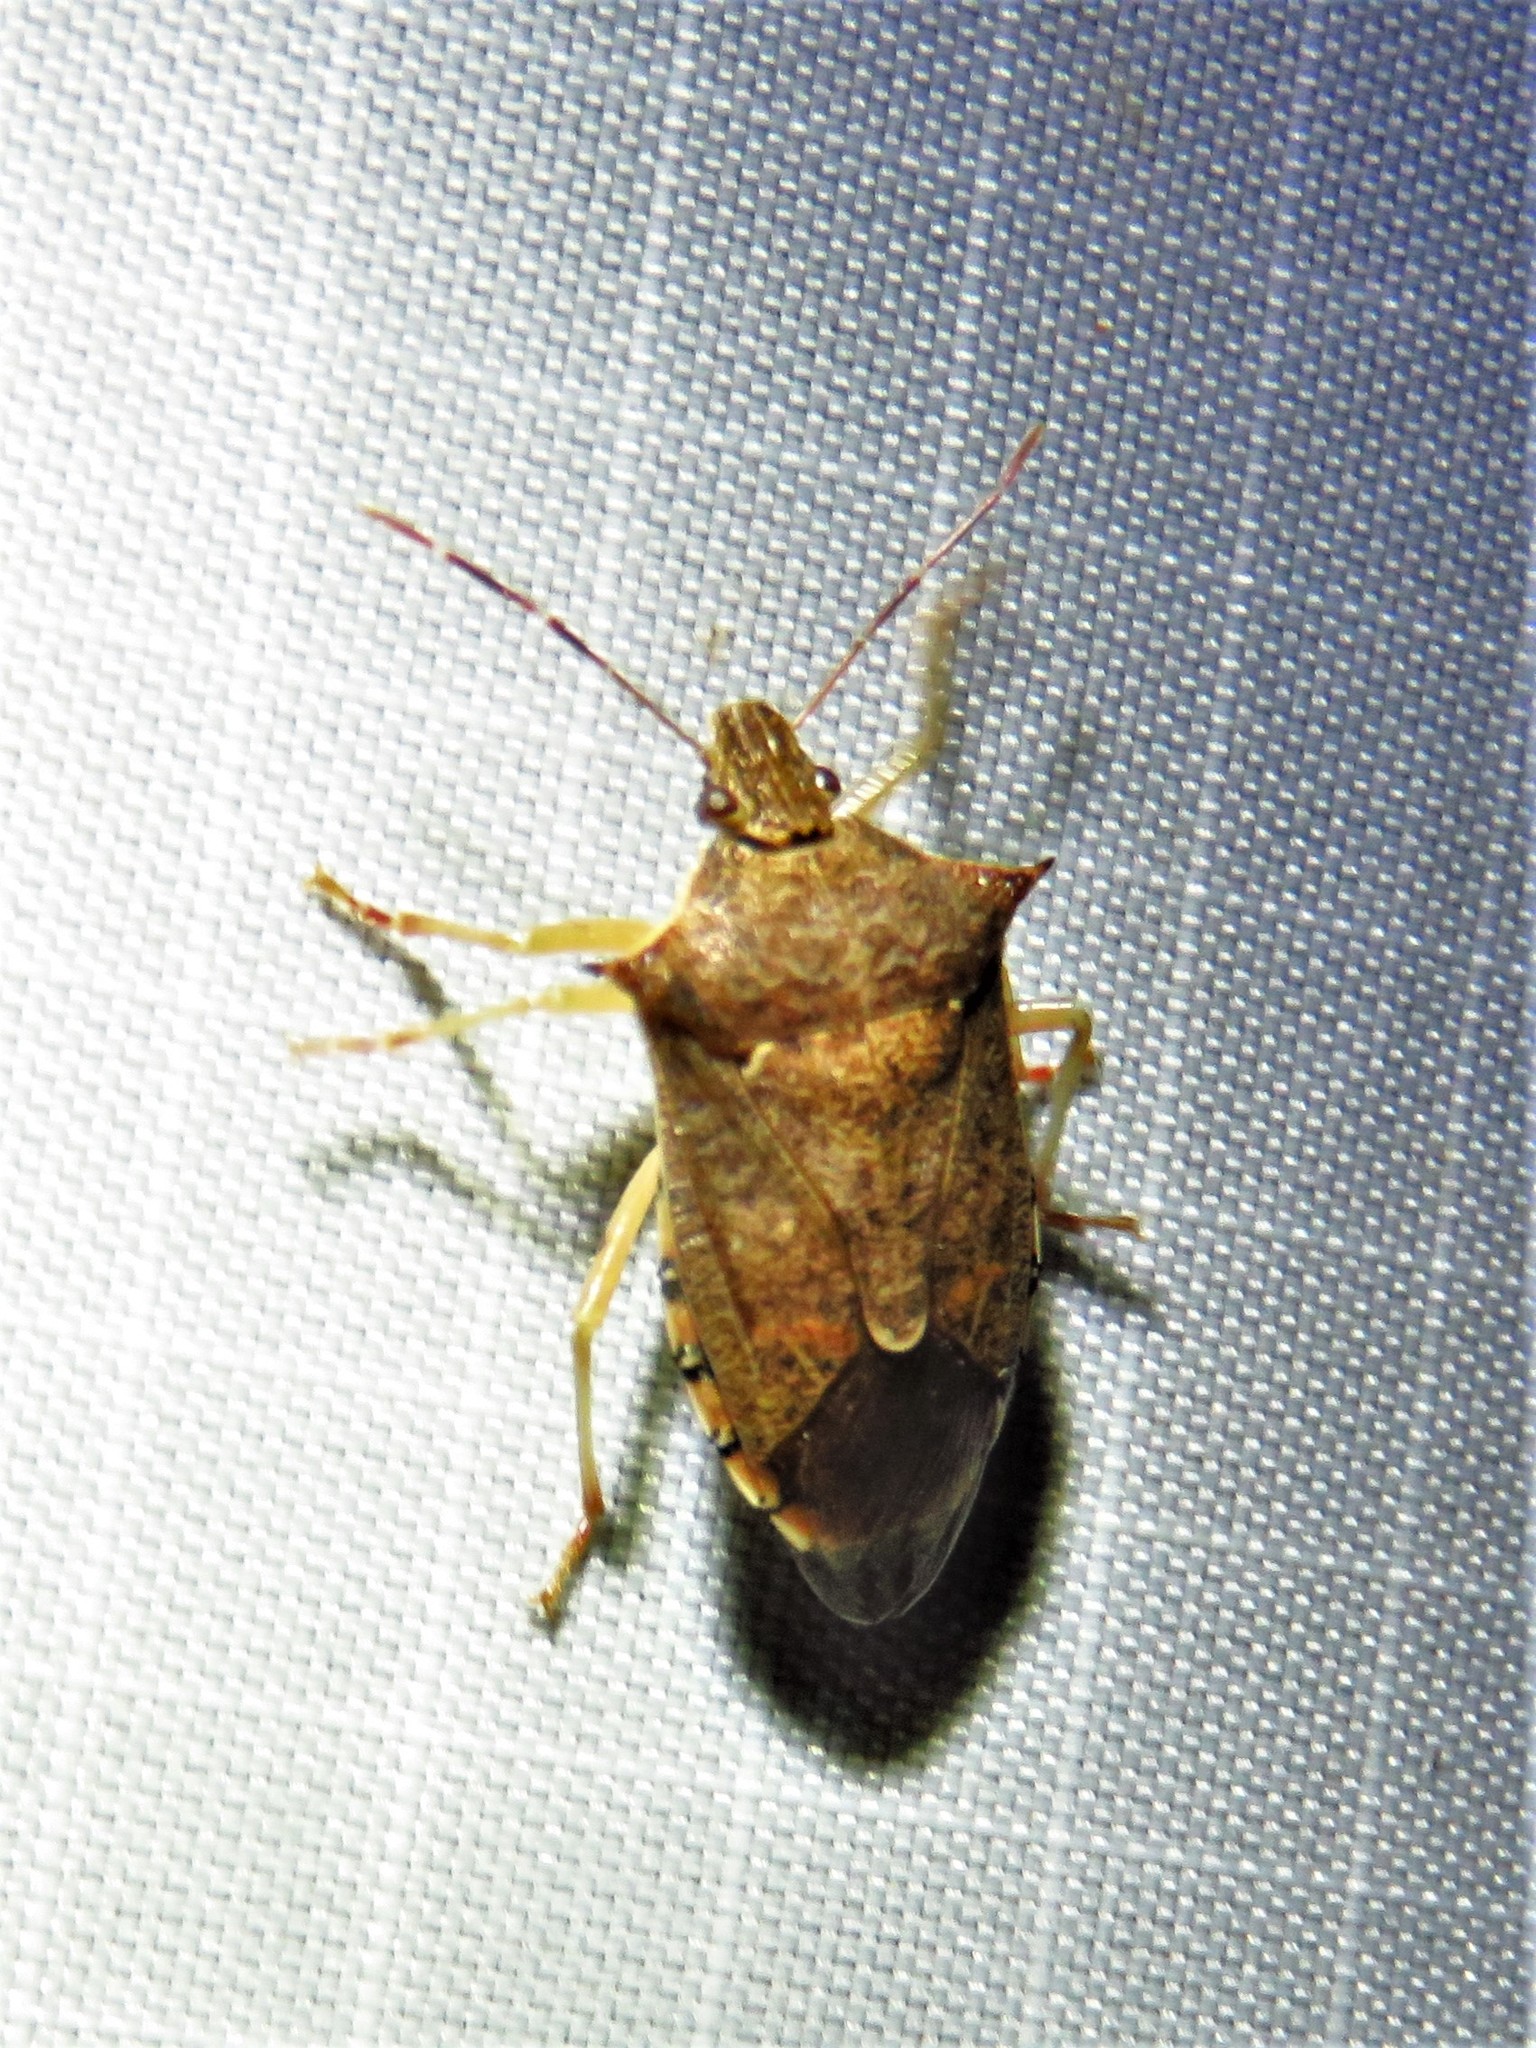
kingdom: Animalia
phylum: Arthropoda
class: Insecta
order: Hemiptera
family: Pentatomidae
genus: Podisus
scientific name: Podisus maculiventris
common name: Spined soldier bug
